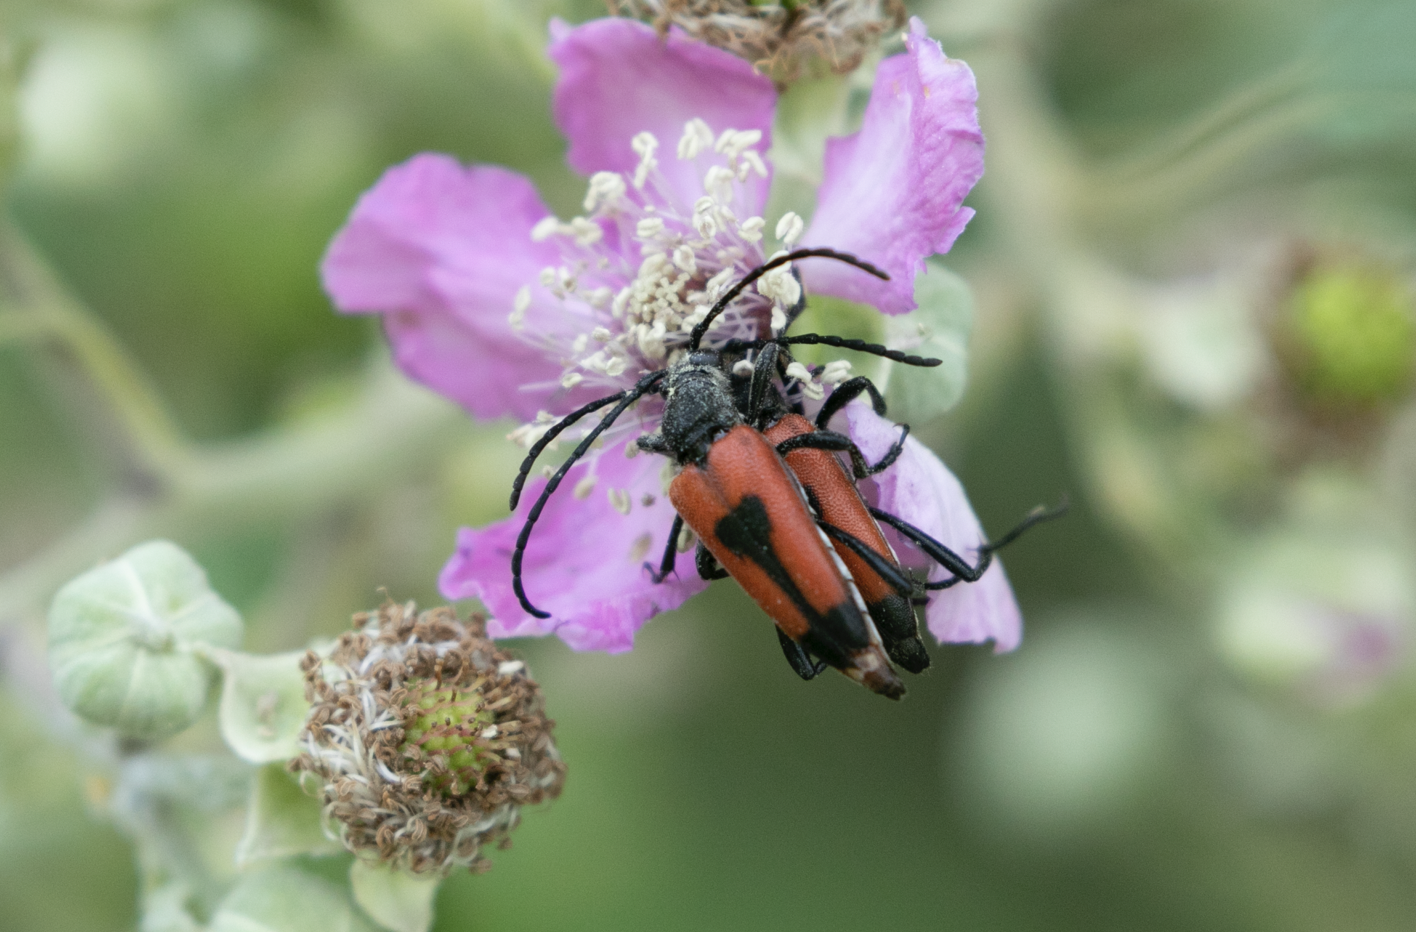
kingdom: Animalia
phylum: Arthropoda
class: Insecta
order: Coleoptera
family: Cerambycidae
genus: Stictoleptura
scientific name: Stictoleptura cordigera
